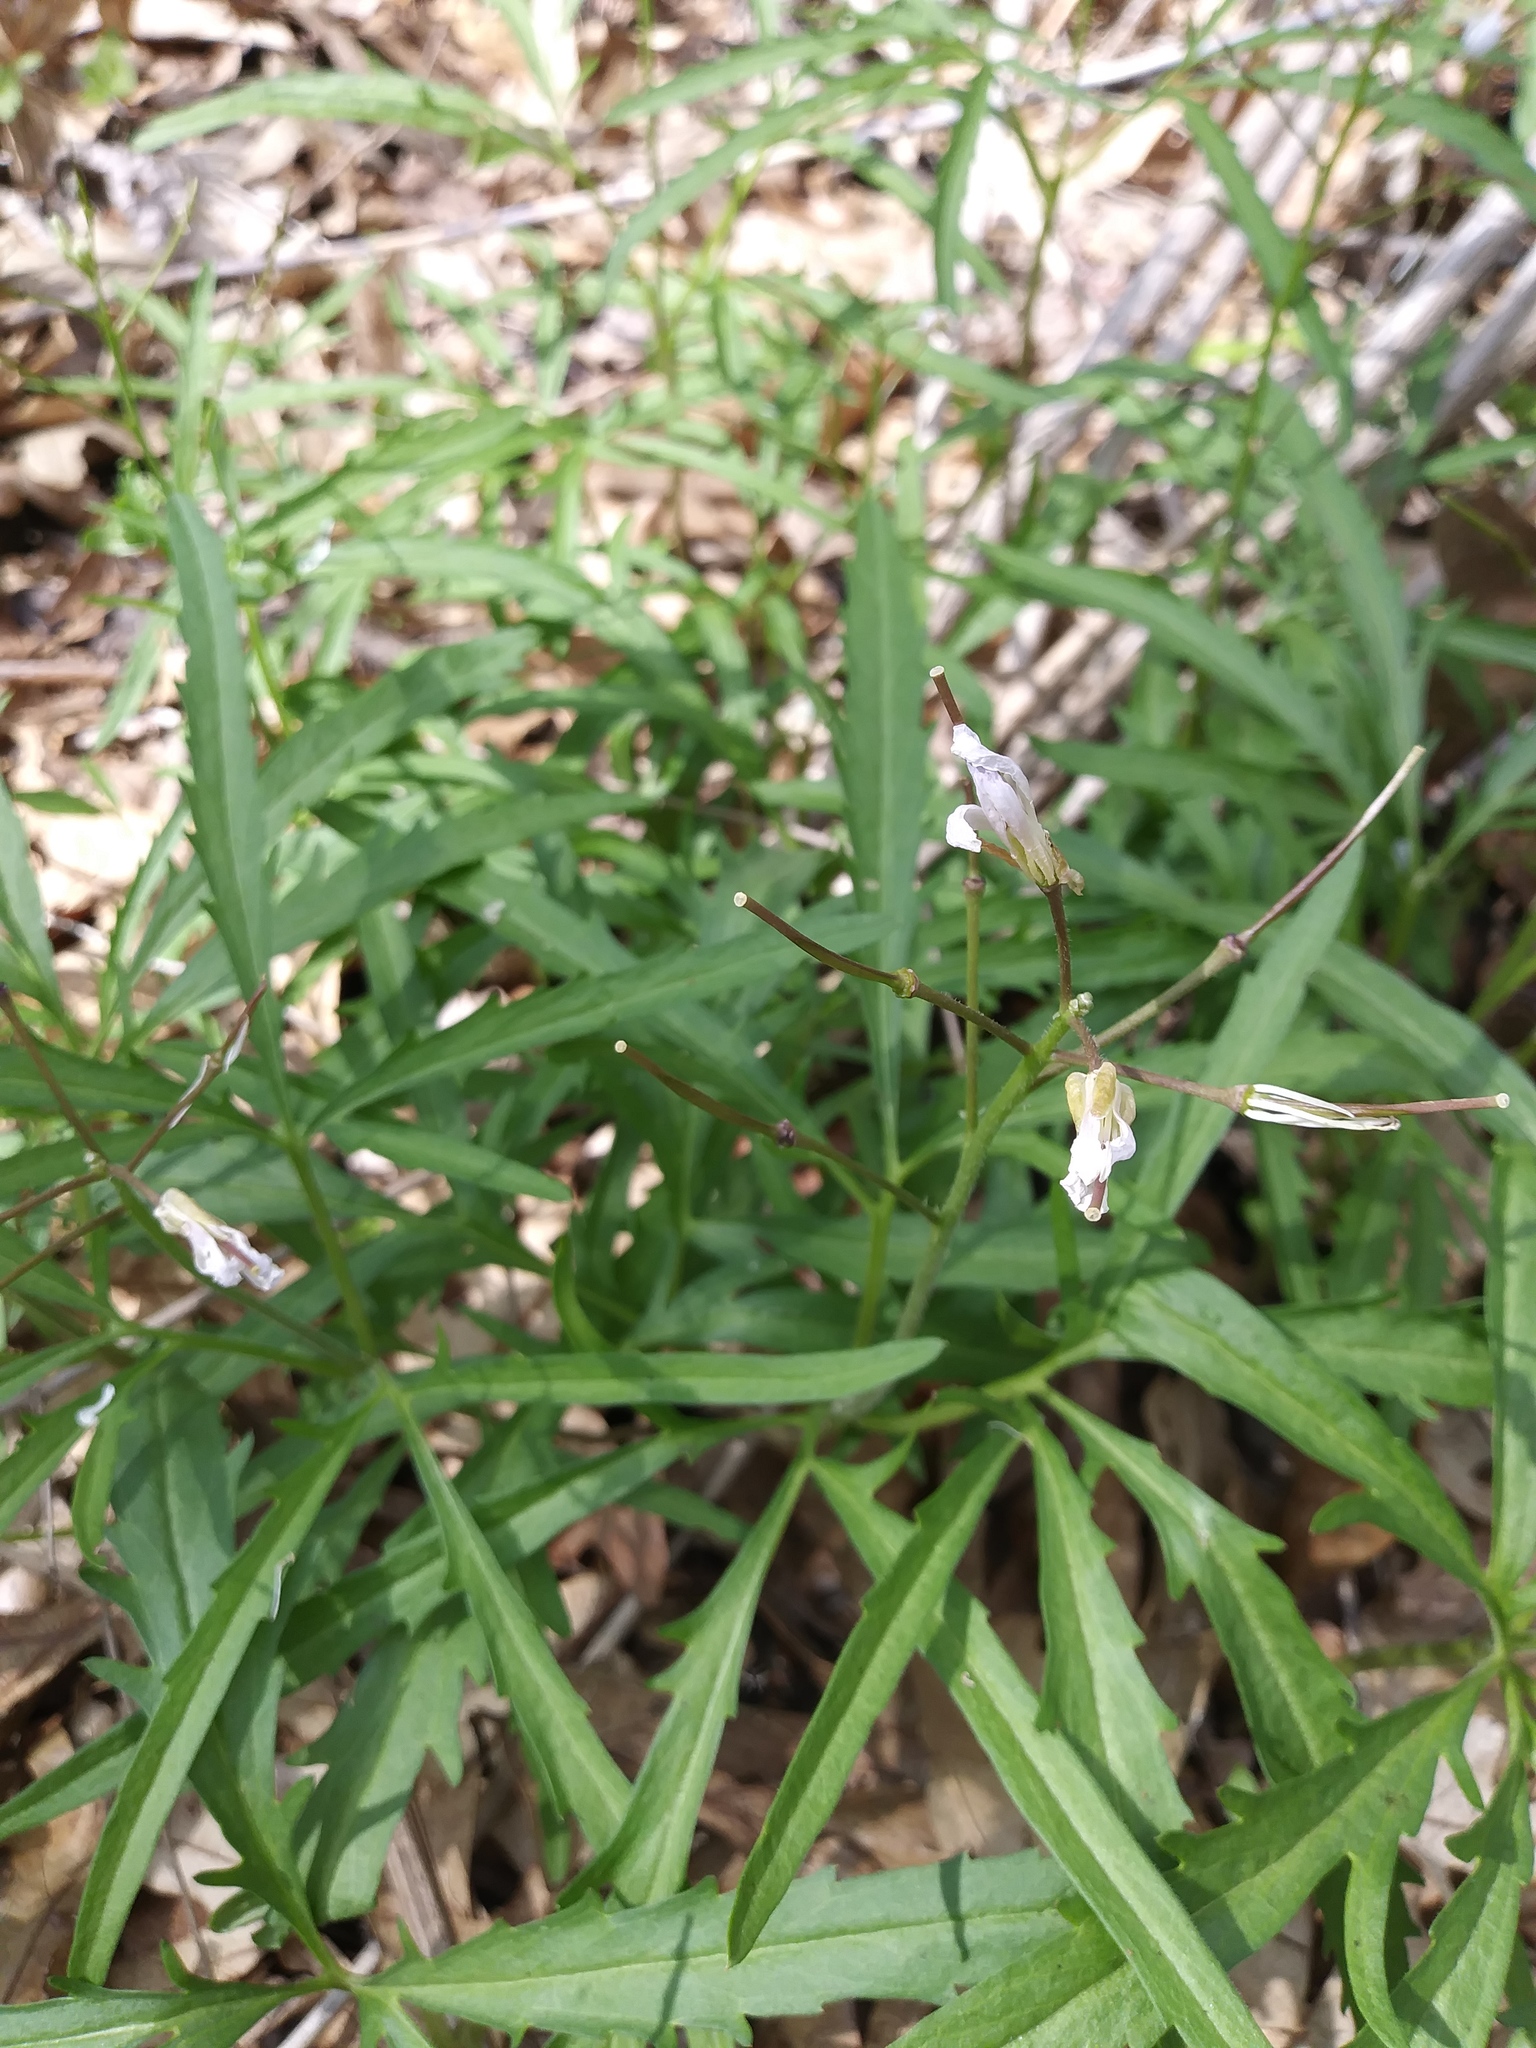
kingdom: Plantae
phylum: Tracheophyta
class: Magnoliopsida
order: Brassicales
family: Brassicaceae
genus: Cardamine
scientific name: Cardamine concatenata
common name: Cut-leaf toothcup
